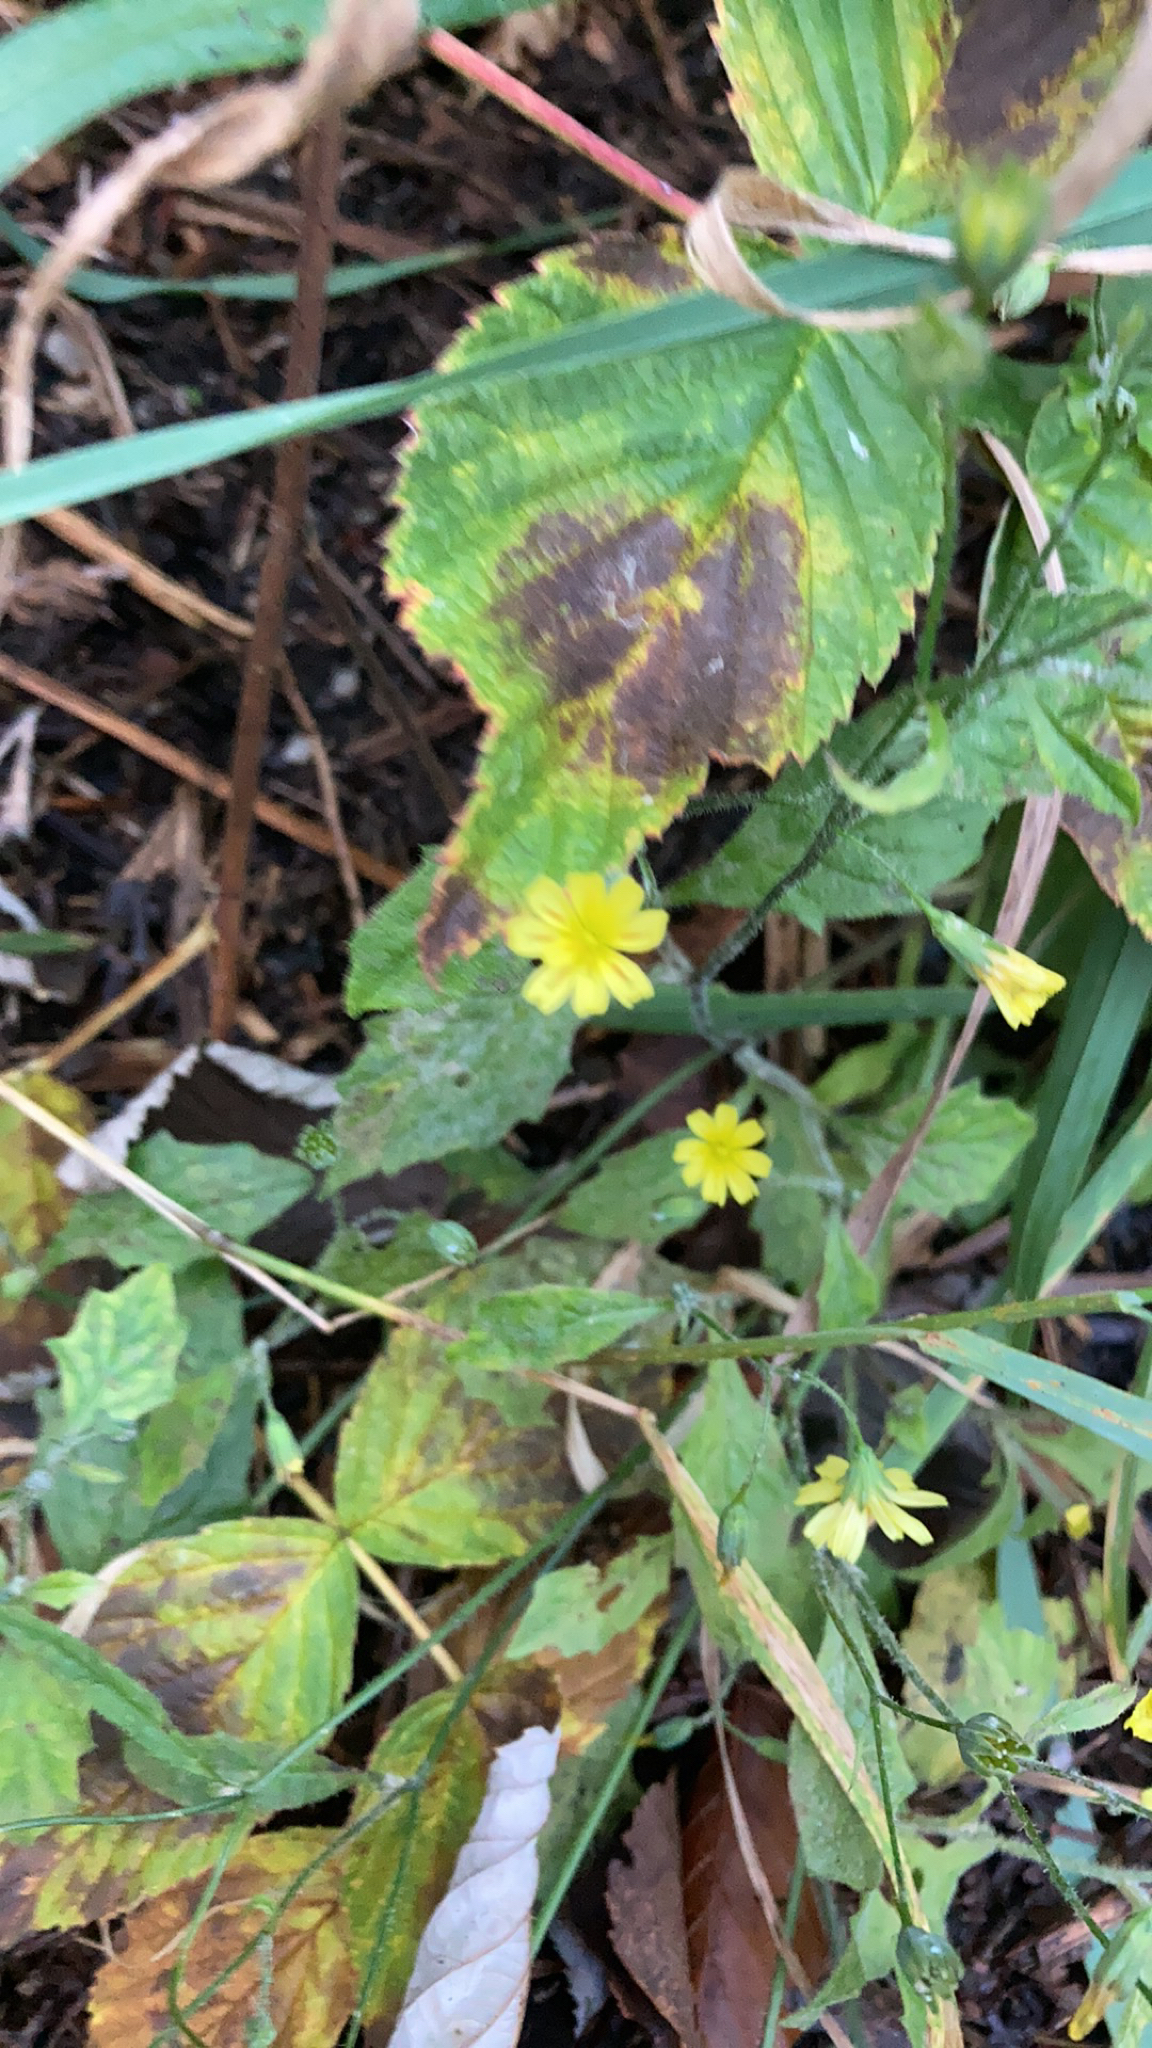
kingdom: Plantae
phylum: Tracheophyta
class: Magnoliopsida
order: Asterales
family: Asteraceae
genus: Lapsana
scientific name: Lapsana communis
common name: Nipplewort
